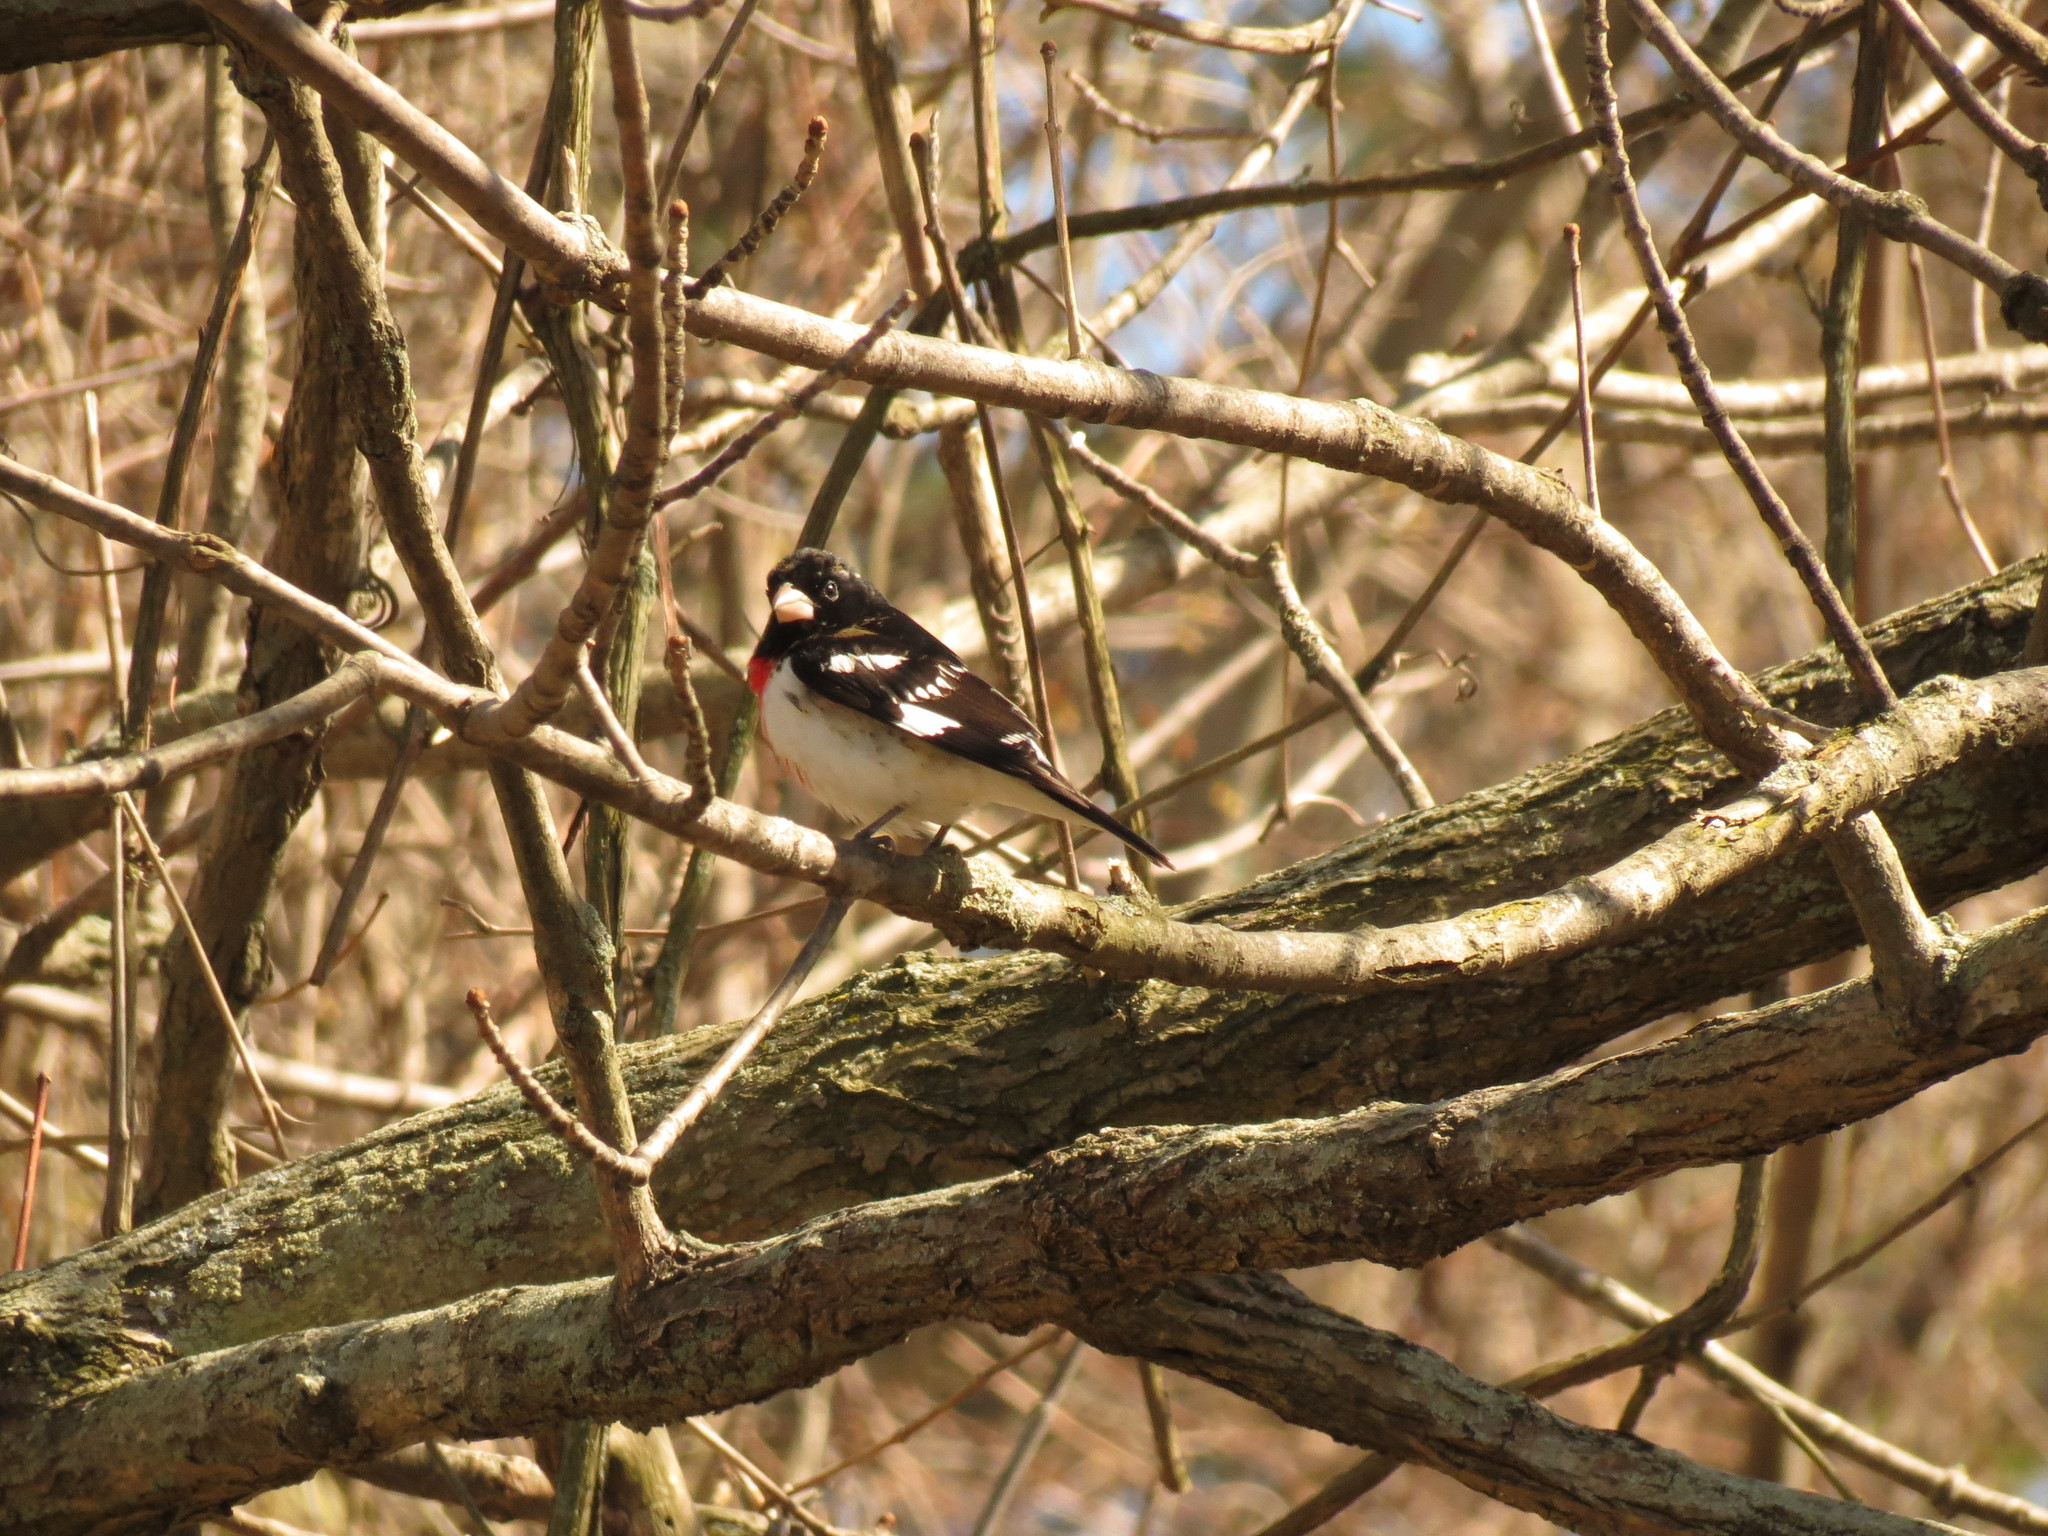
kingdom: Animalia
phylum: Chordata
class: Aves
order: Passeriformes
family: Cardinalidae
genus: Pheucticus
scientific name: Pheucticus ludovicianus
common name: Rose-breasted grosbeak
